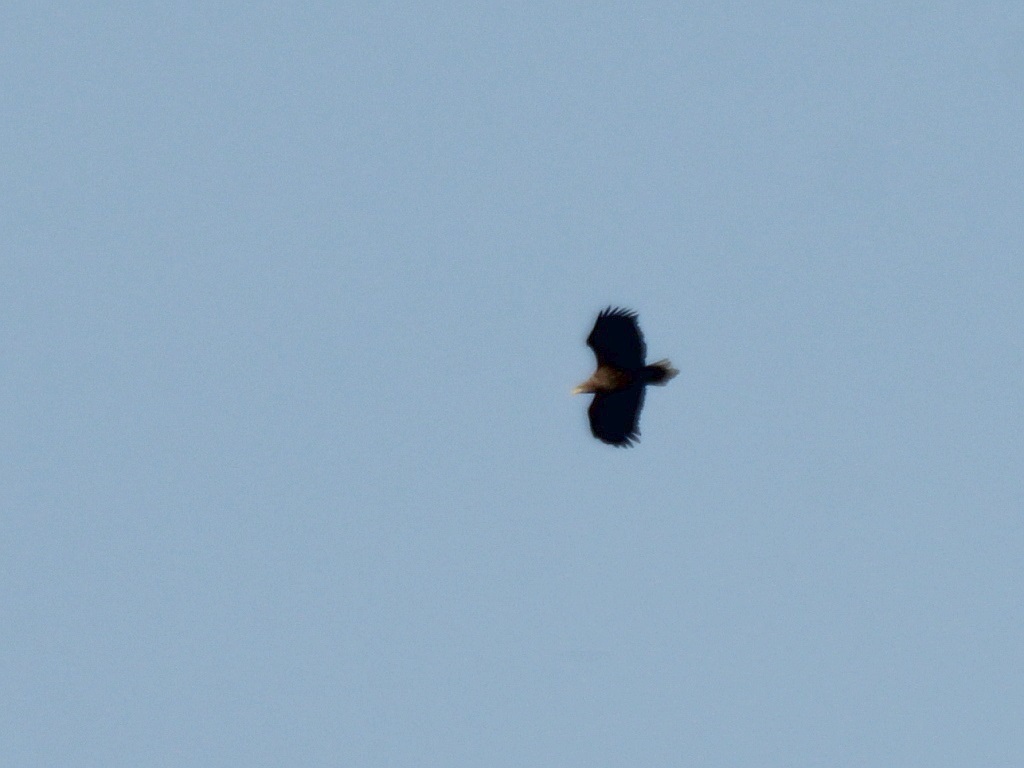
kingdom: Animalia
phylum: Chordata
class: Aves
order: Accipitriformes
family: Accipitridae
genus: Haliaeetus
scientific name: Haliaeetus albicilla
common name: White-tailed eagle
